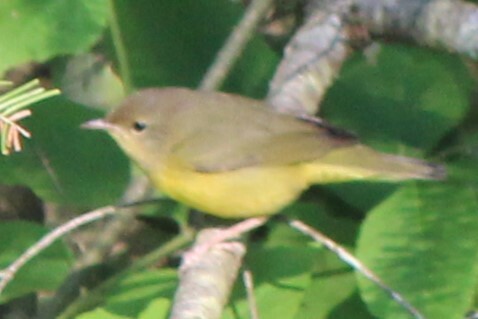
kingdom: Animalia
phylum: Chordata
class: Aves
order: Passeriformes
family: Parulidae
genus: Geothlypis
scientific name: Geothlypis trichas
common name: Common yellowthroat
